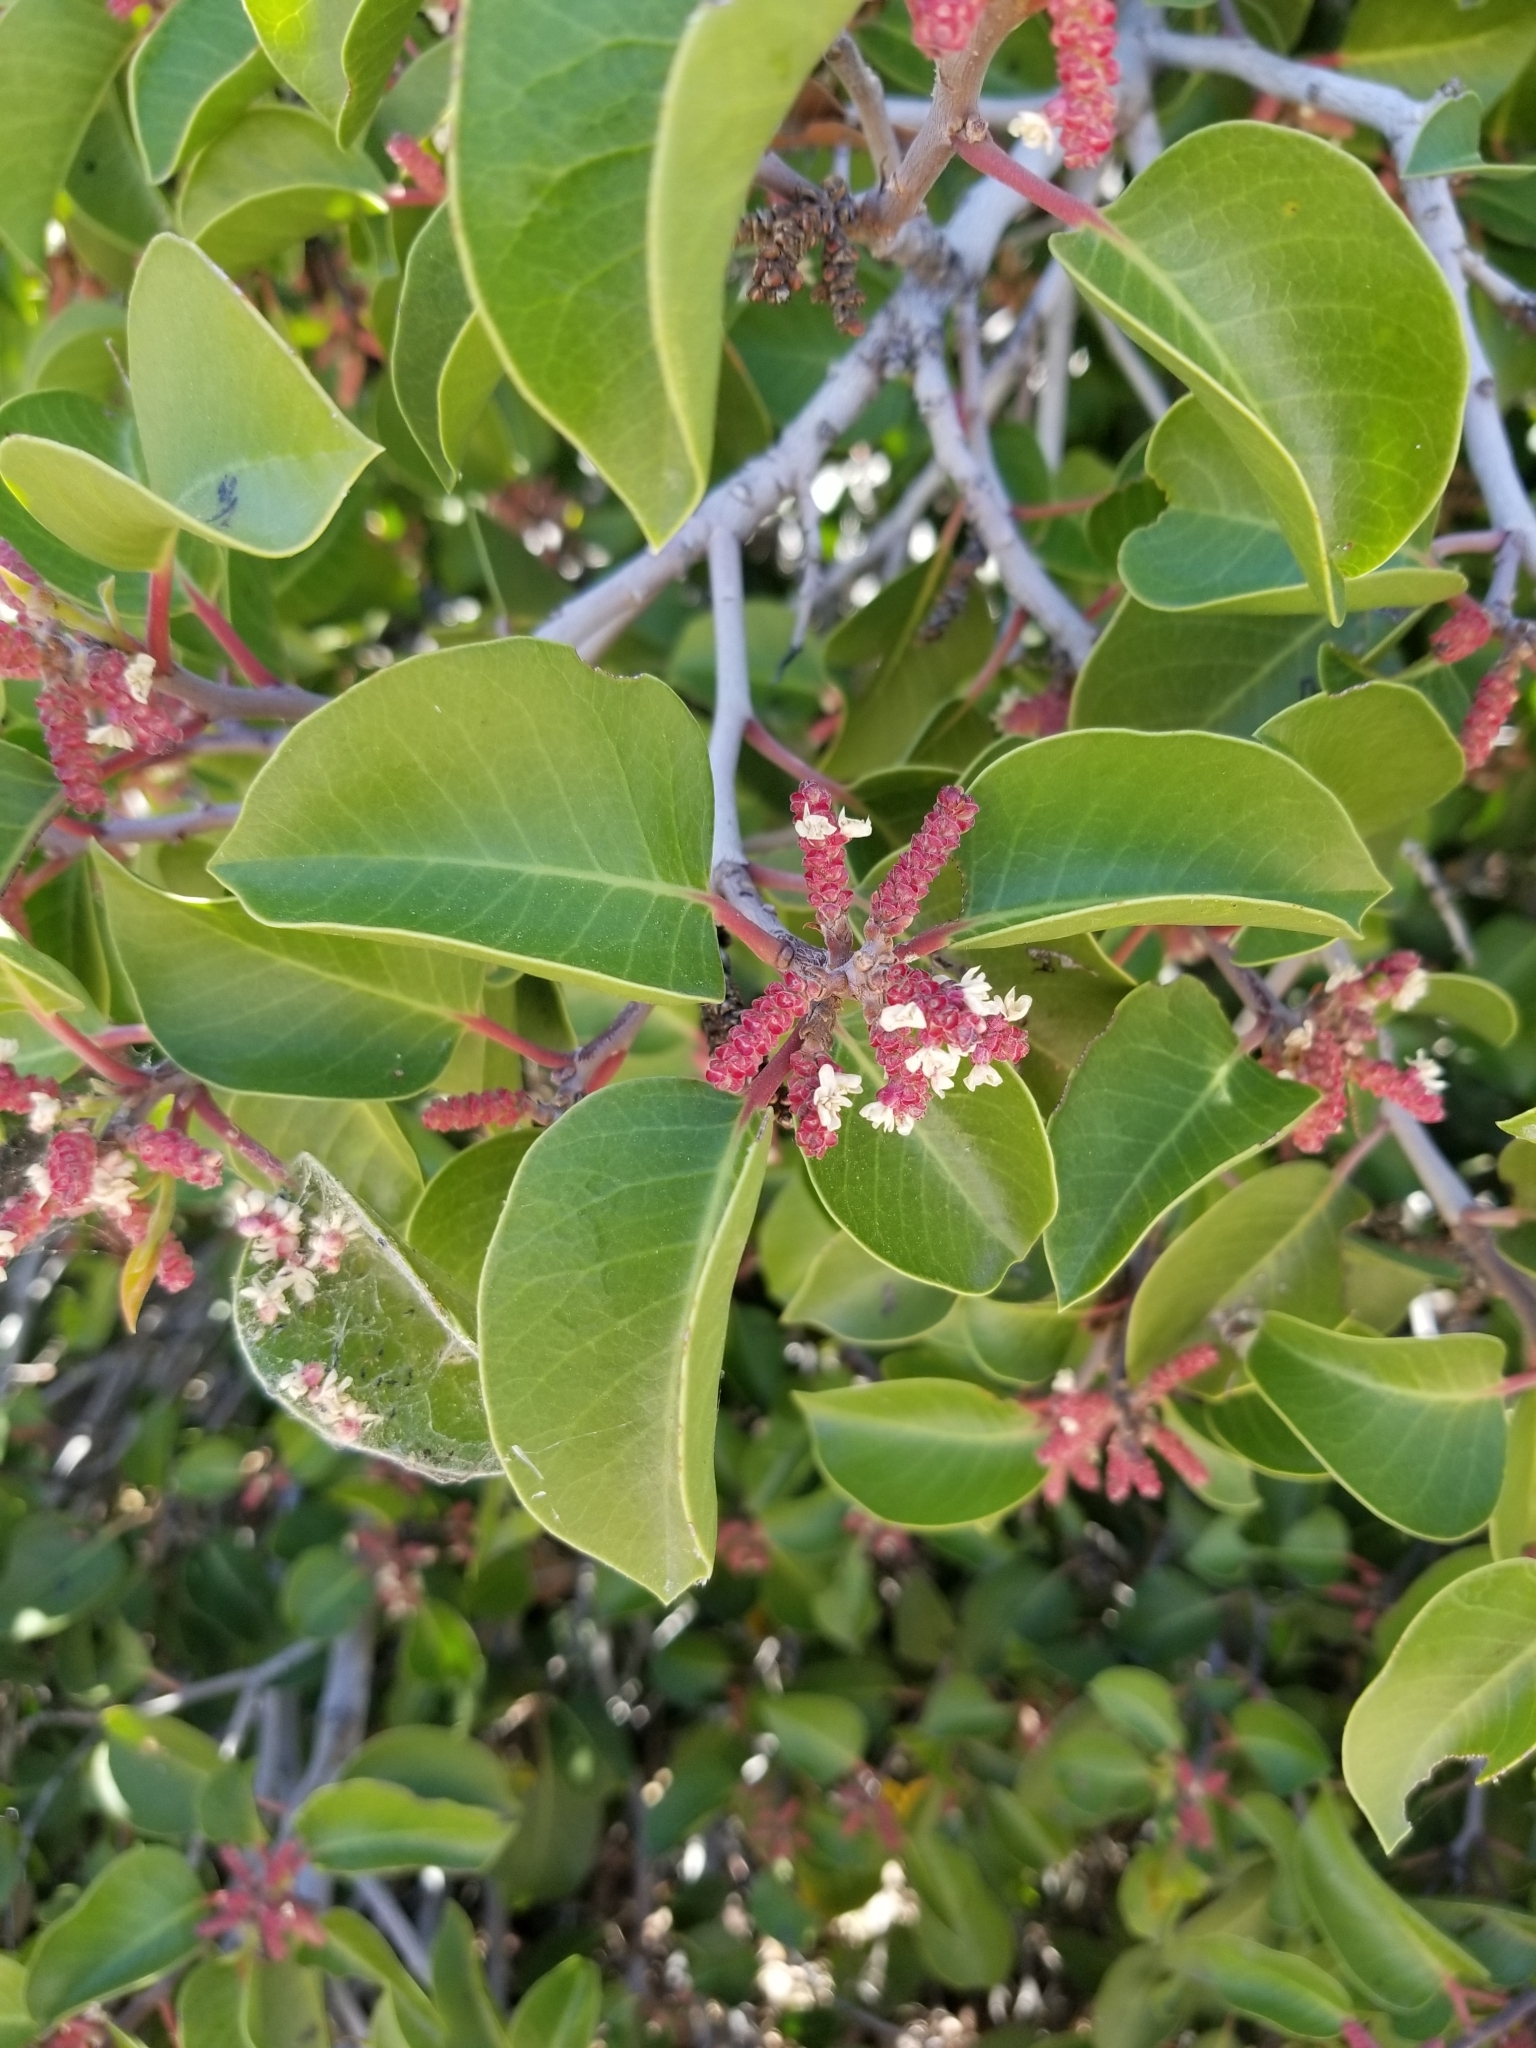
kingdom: Plantae
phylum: Tracheophyta
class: Magnoliopsida
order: Sapindales
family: Anacardiaceae
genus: Rhus
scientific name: Rhus ovata
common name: Sugar sumac
